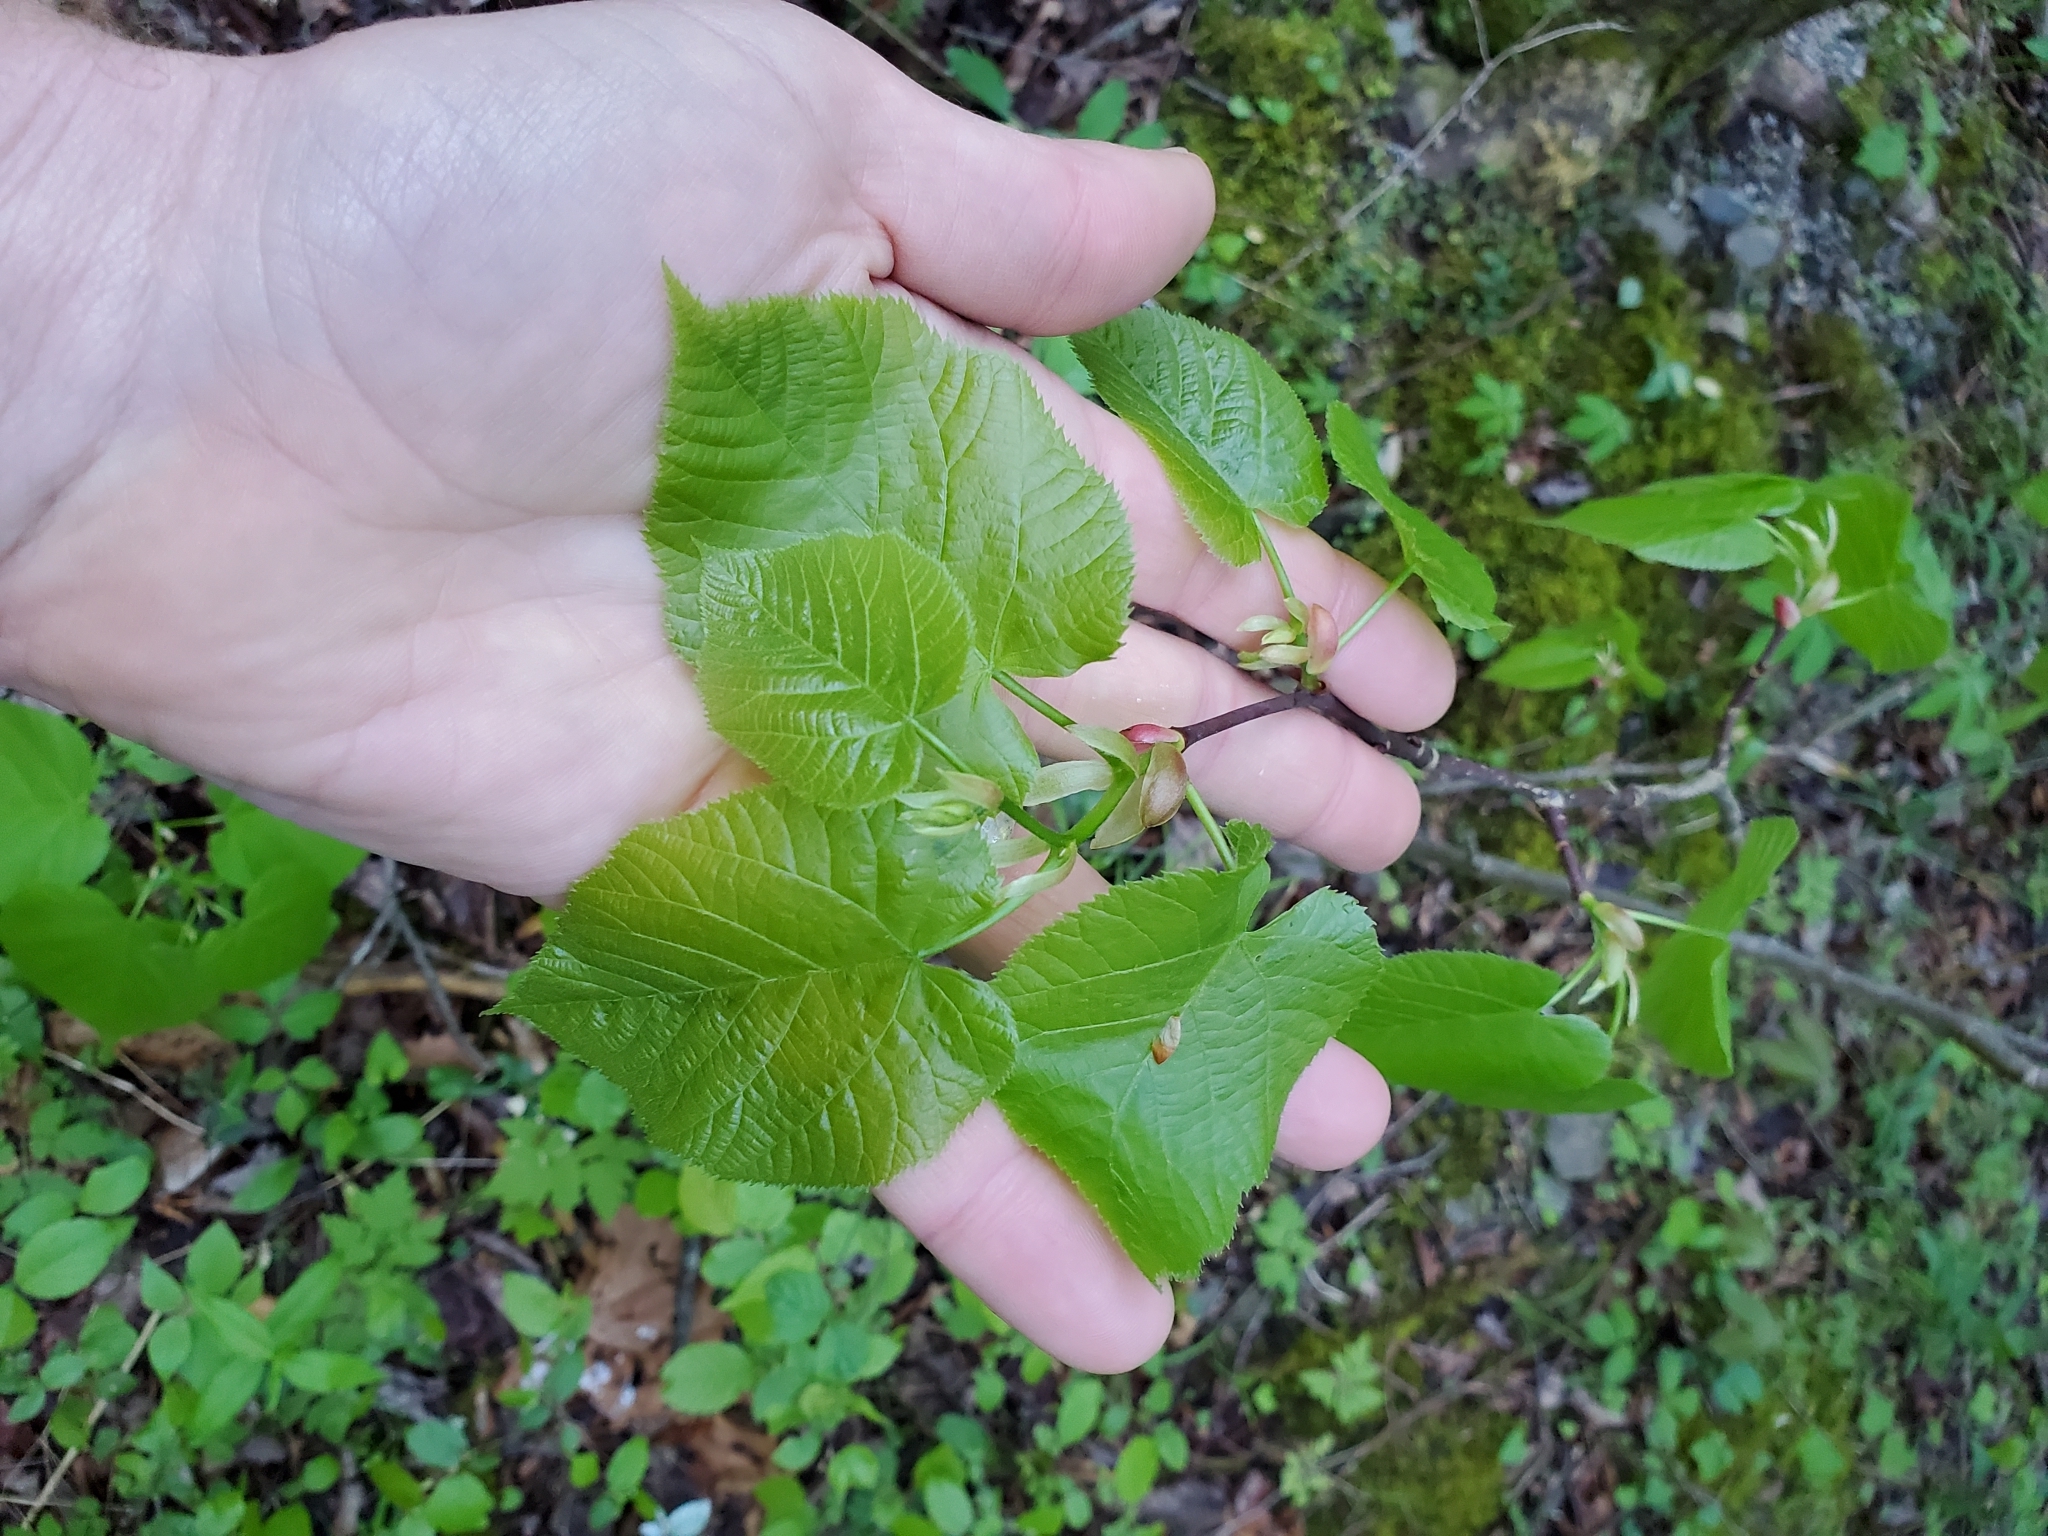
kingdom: Plantae
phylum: Tracheophyta
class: Magnoliopsida
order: Malvales
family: Malvaceae
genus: Tilia
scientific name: Tilia americana
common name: Basswood
